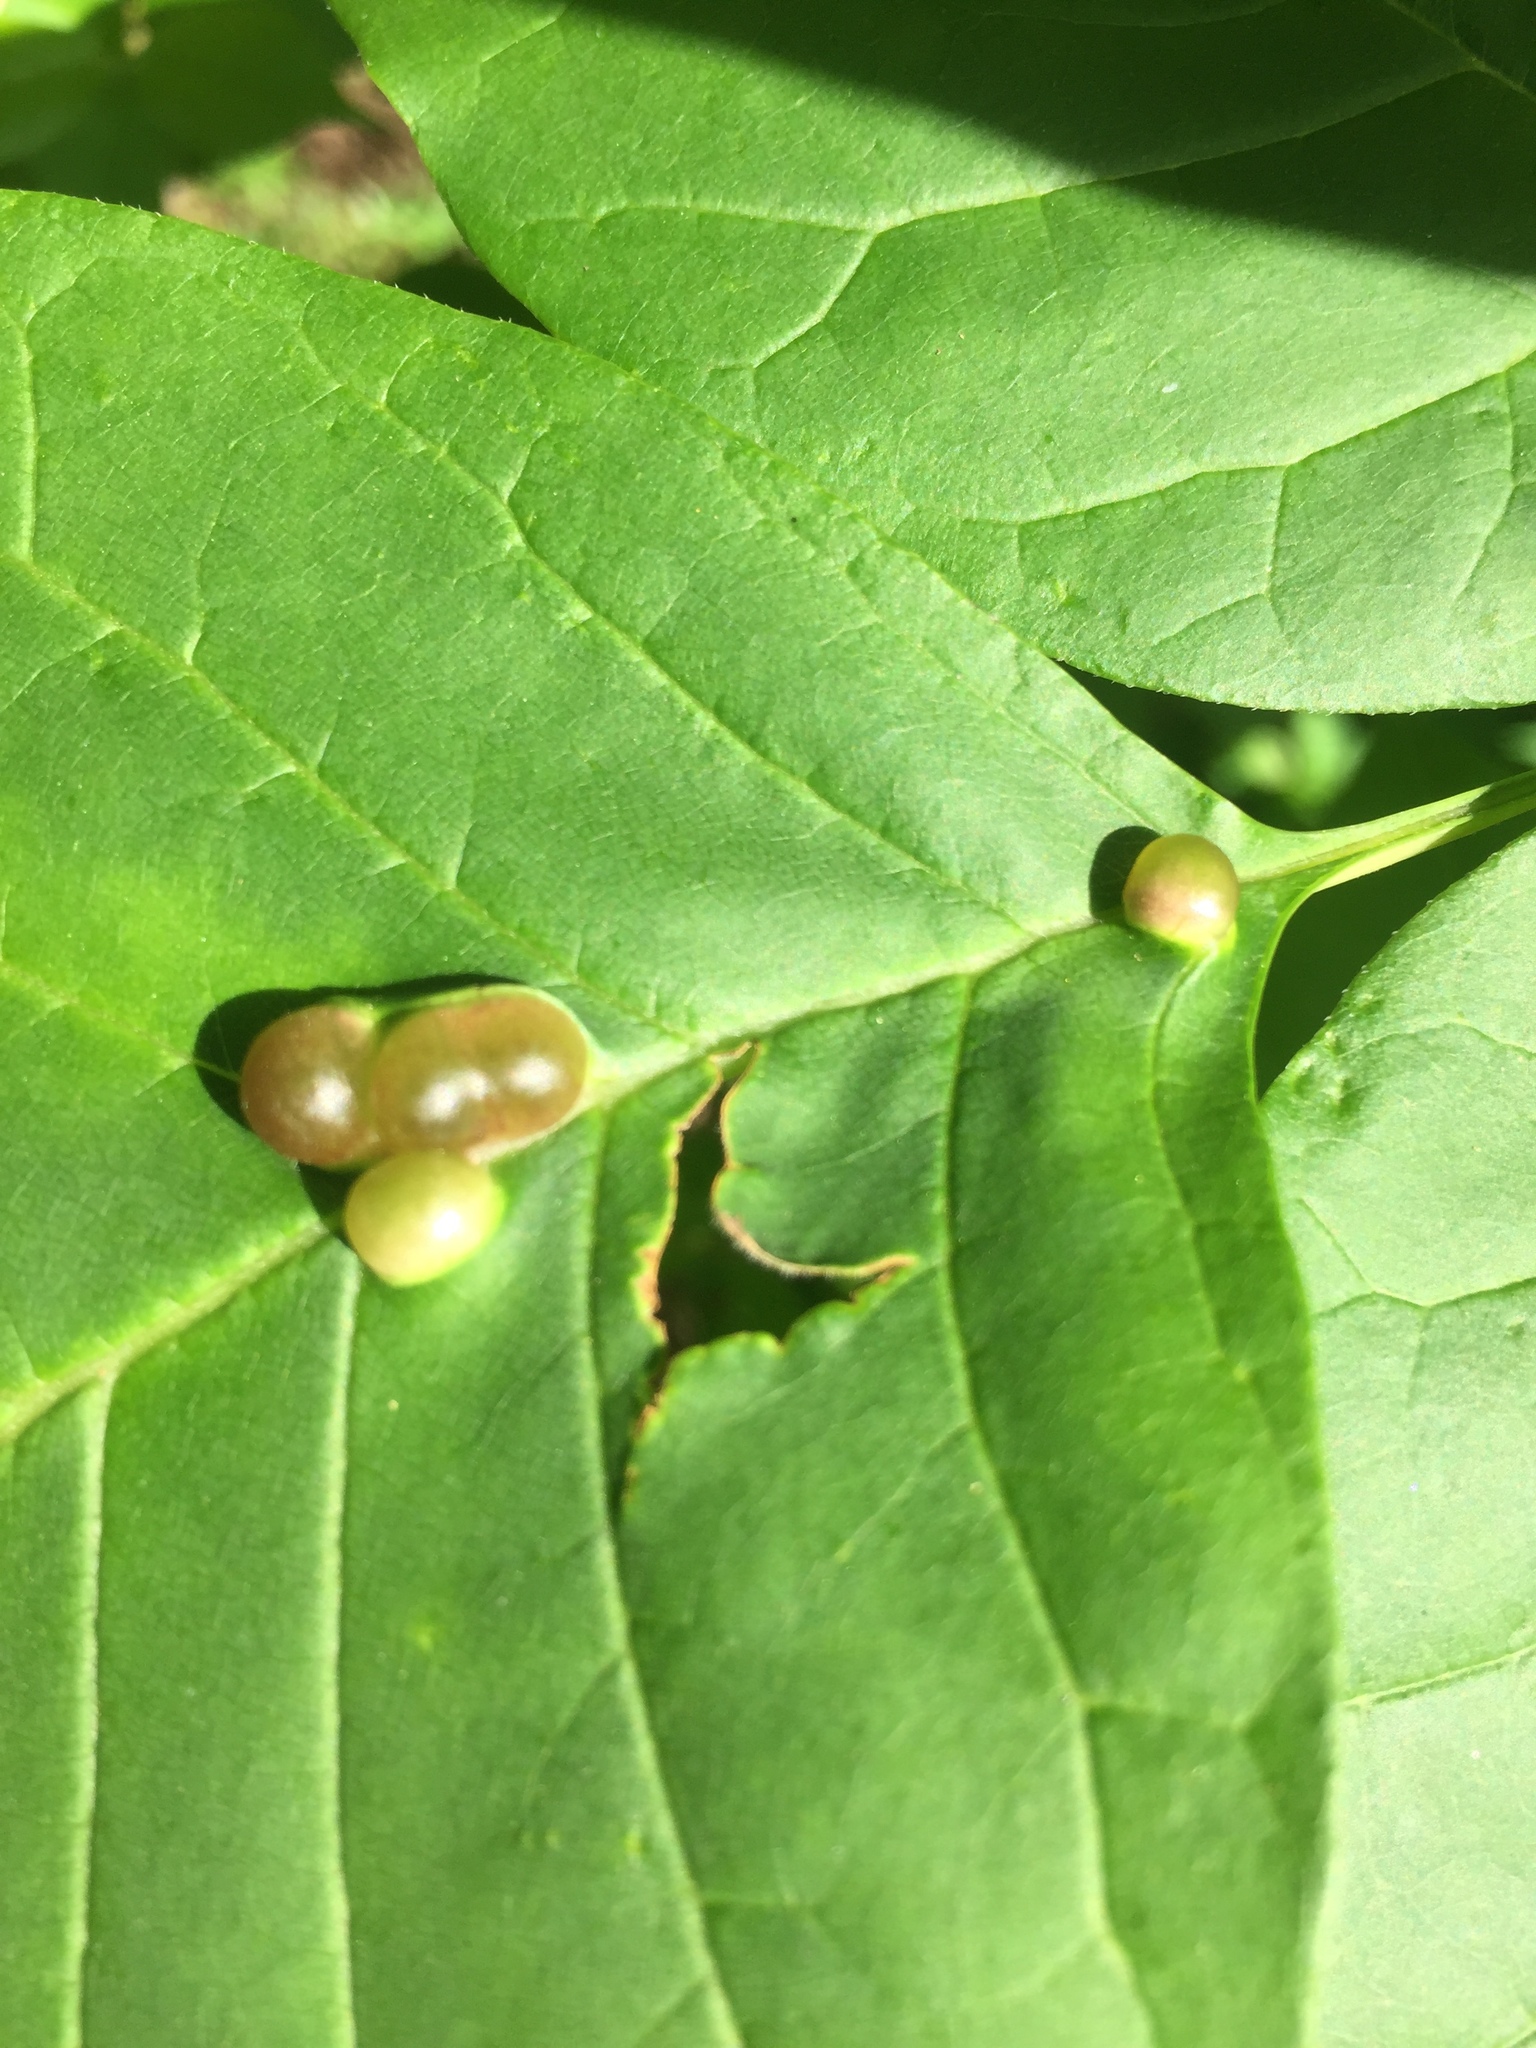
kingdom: Animalia
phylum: Arthropoda
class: Insecta
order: Diptera
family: Cecidomyiidae
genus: Dasineura
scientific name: Dasineura pellex
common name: Ash bullet gall midge
